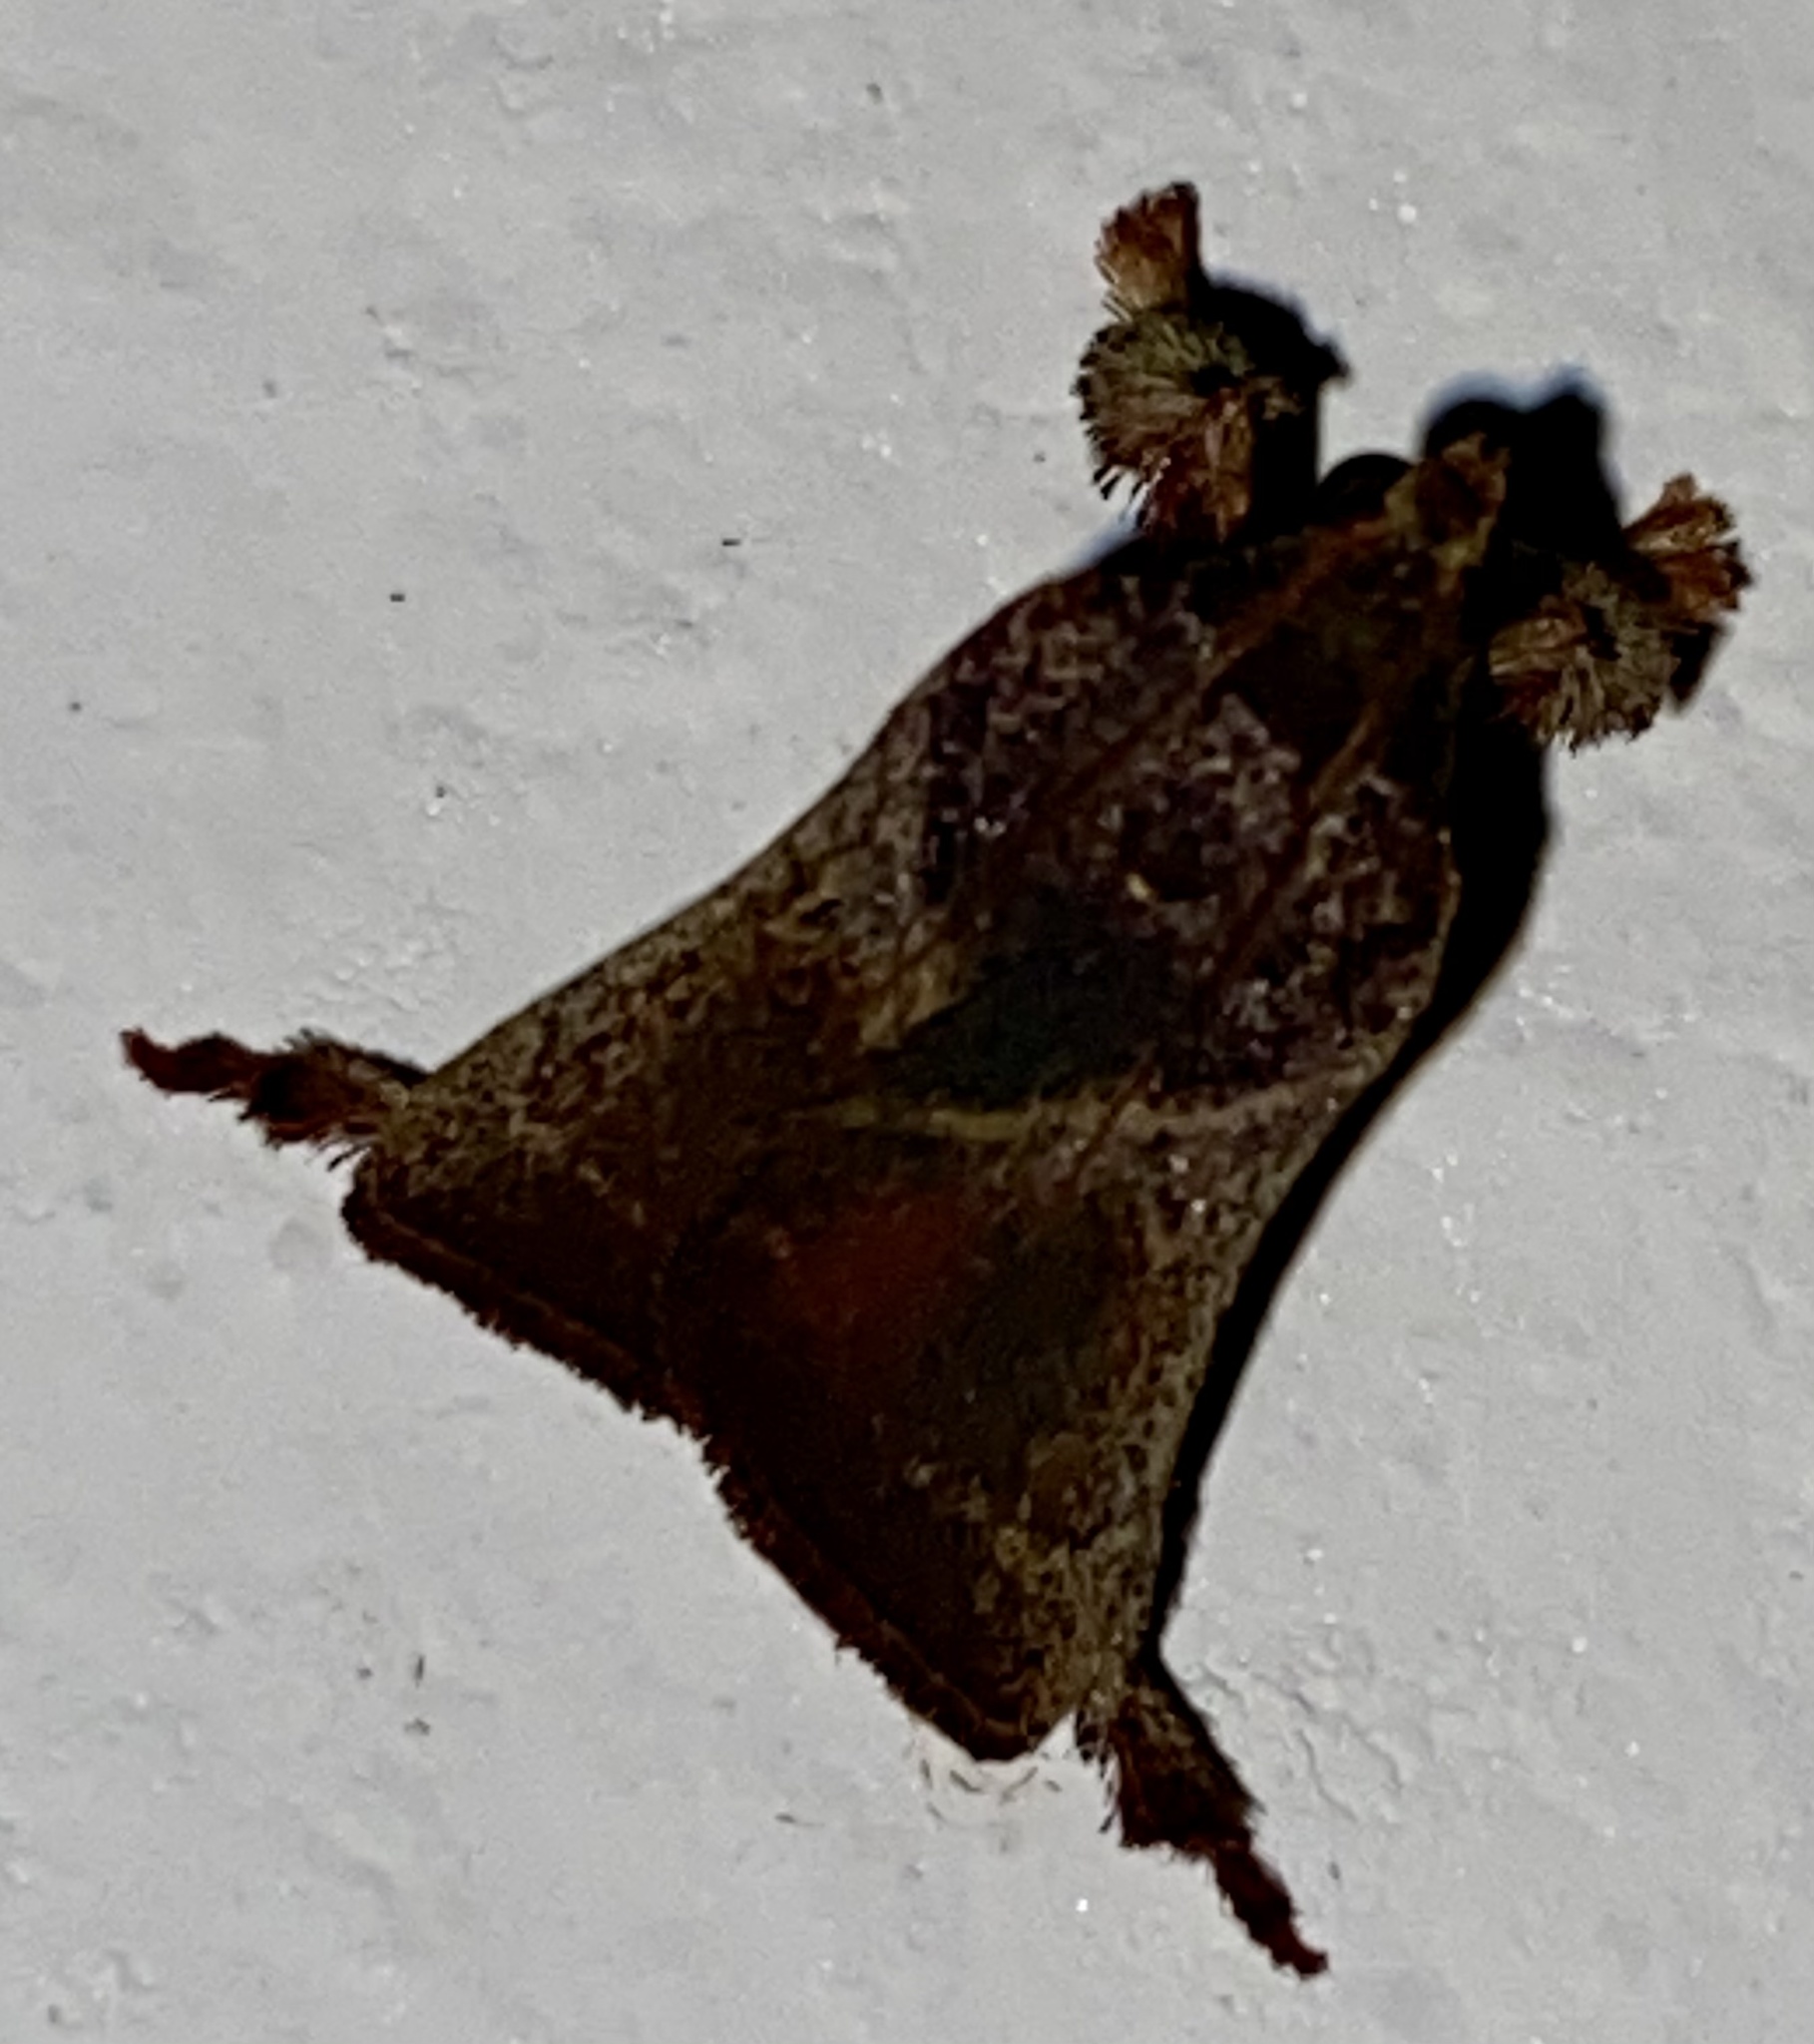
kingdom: Animalia
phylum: Arthropoda
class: Insecta
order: Lepidoptera
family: Pyralidae
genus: Dasycnemia
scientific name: Dasycnemia
